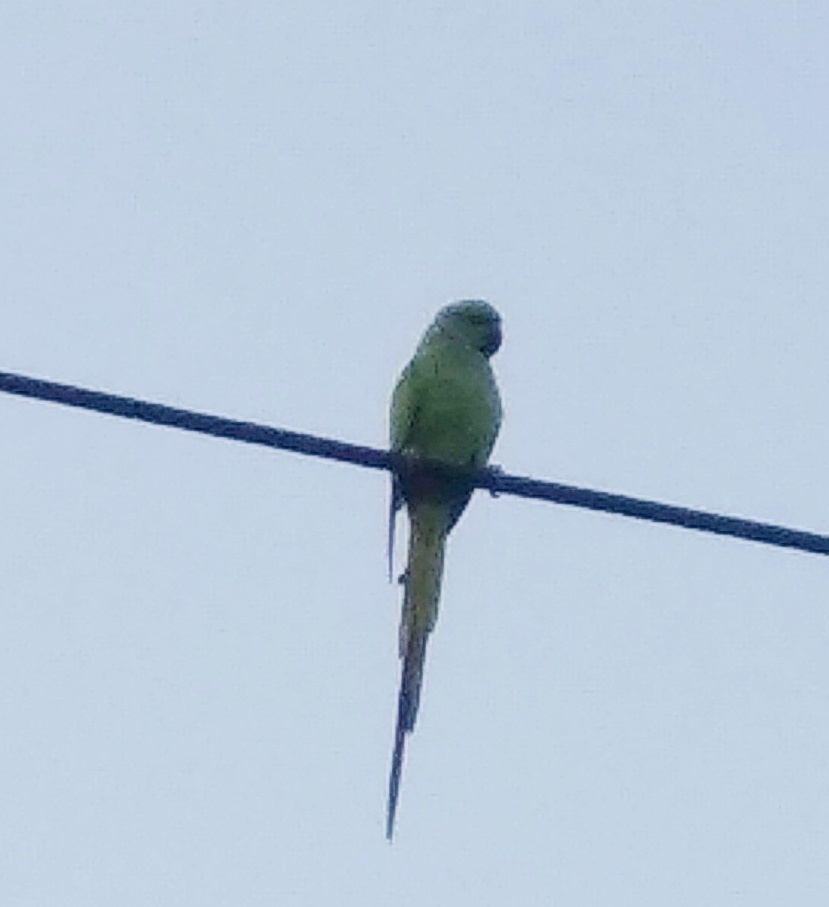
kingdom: Animalia
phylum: Chordata
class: Aves
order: Psittaciformes
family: Psittacidae
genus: Psittacula
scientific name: Psittacula krameri
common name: Rose-ringed parakeet
